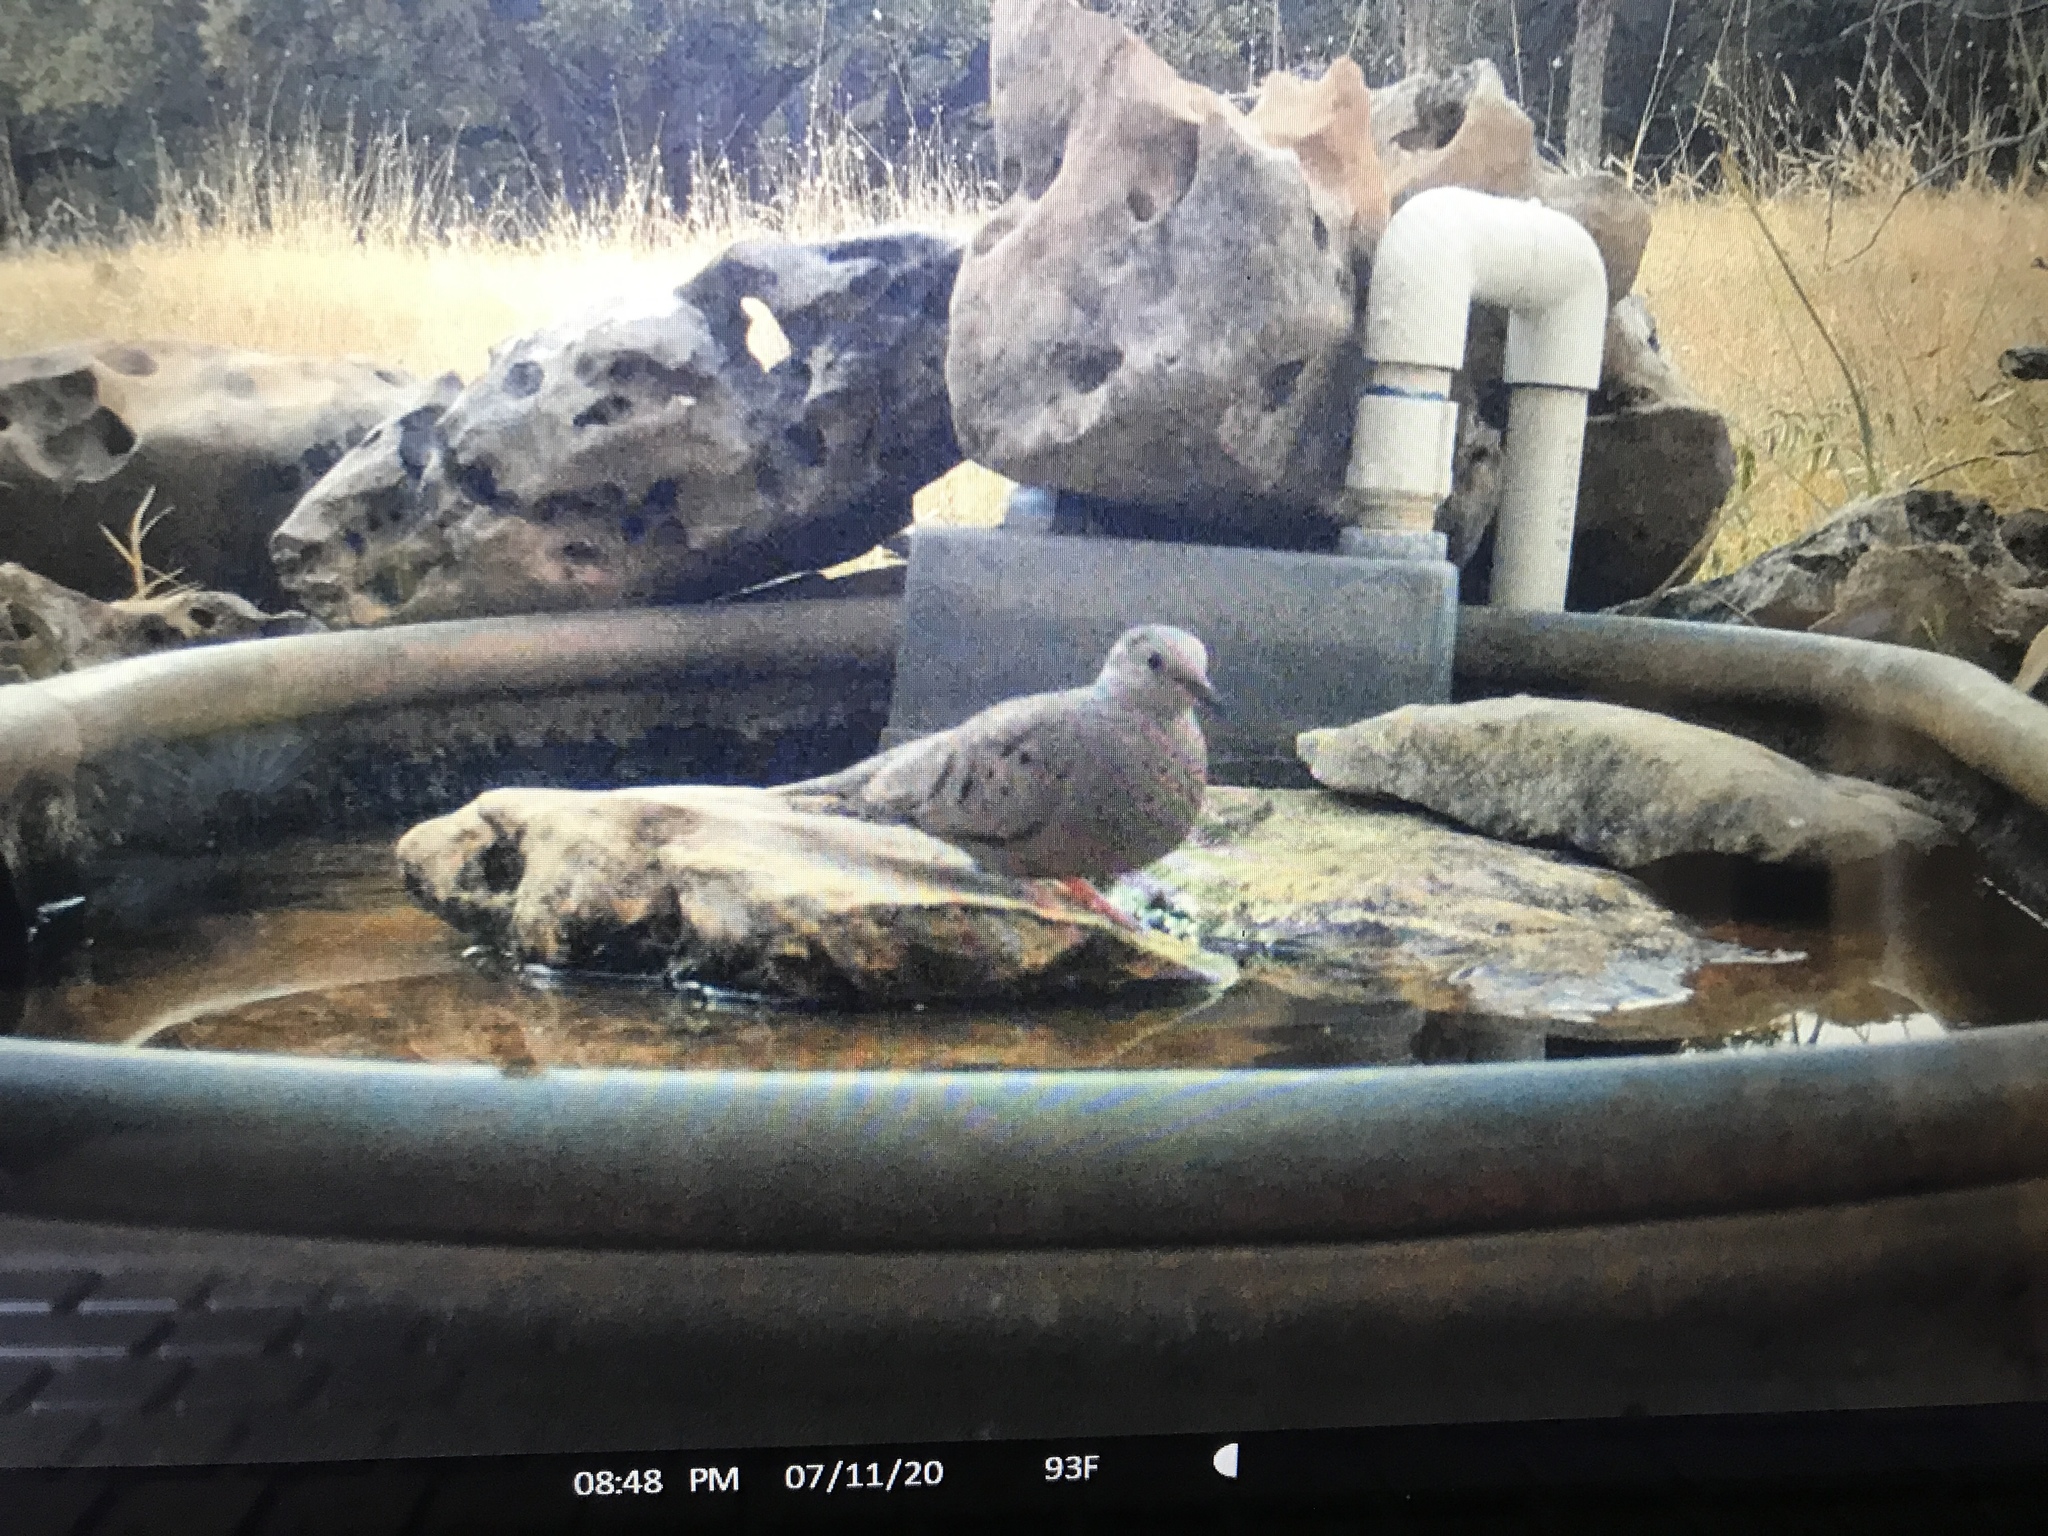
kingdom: Animalia
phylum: Chordata
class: Aves
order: Columbiformes
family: Columbidae
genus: Columbina
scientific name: Columbina passerina
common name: Common ground-dove
